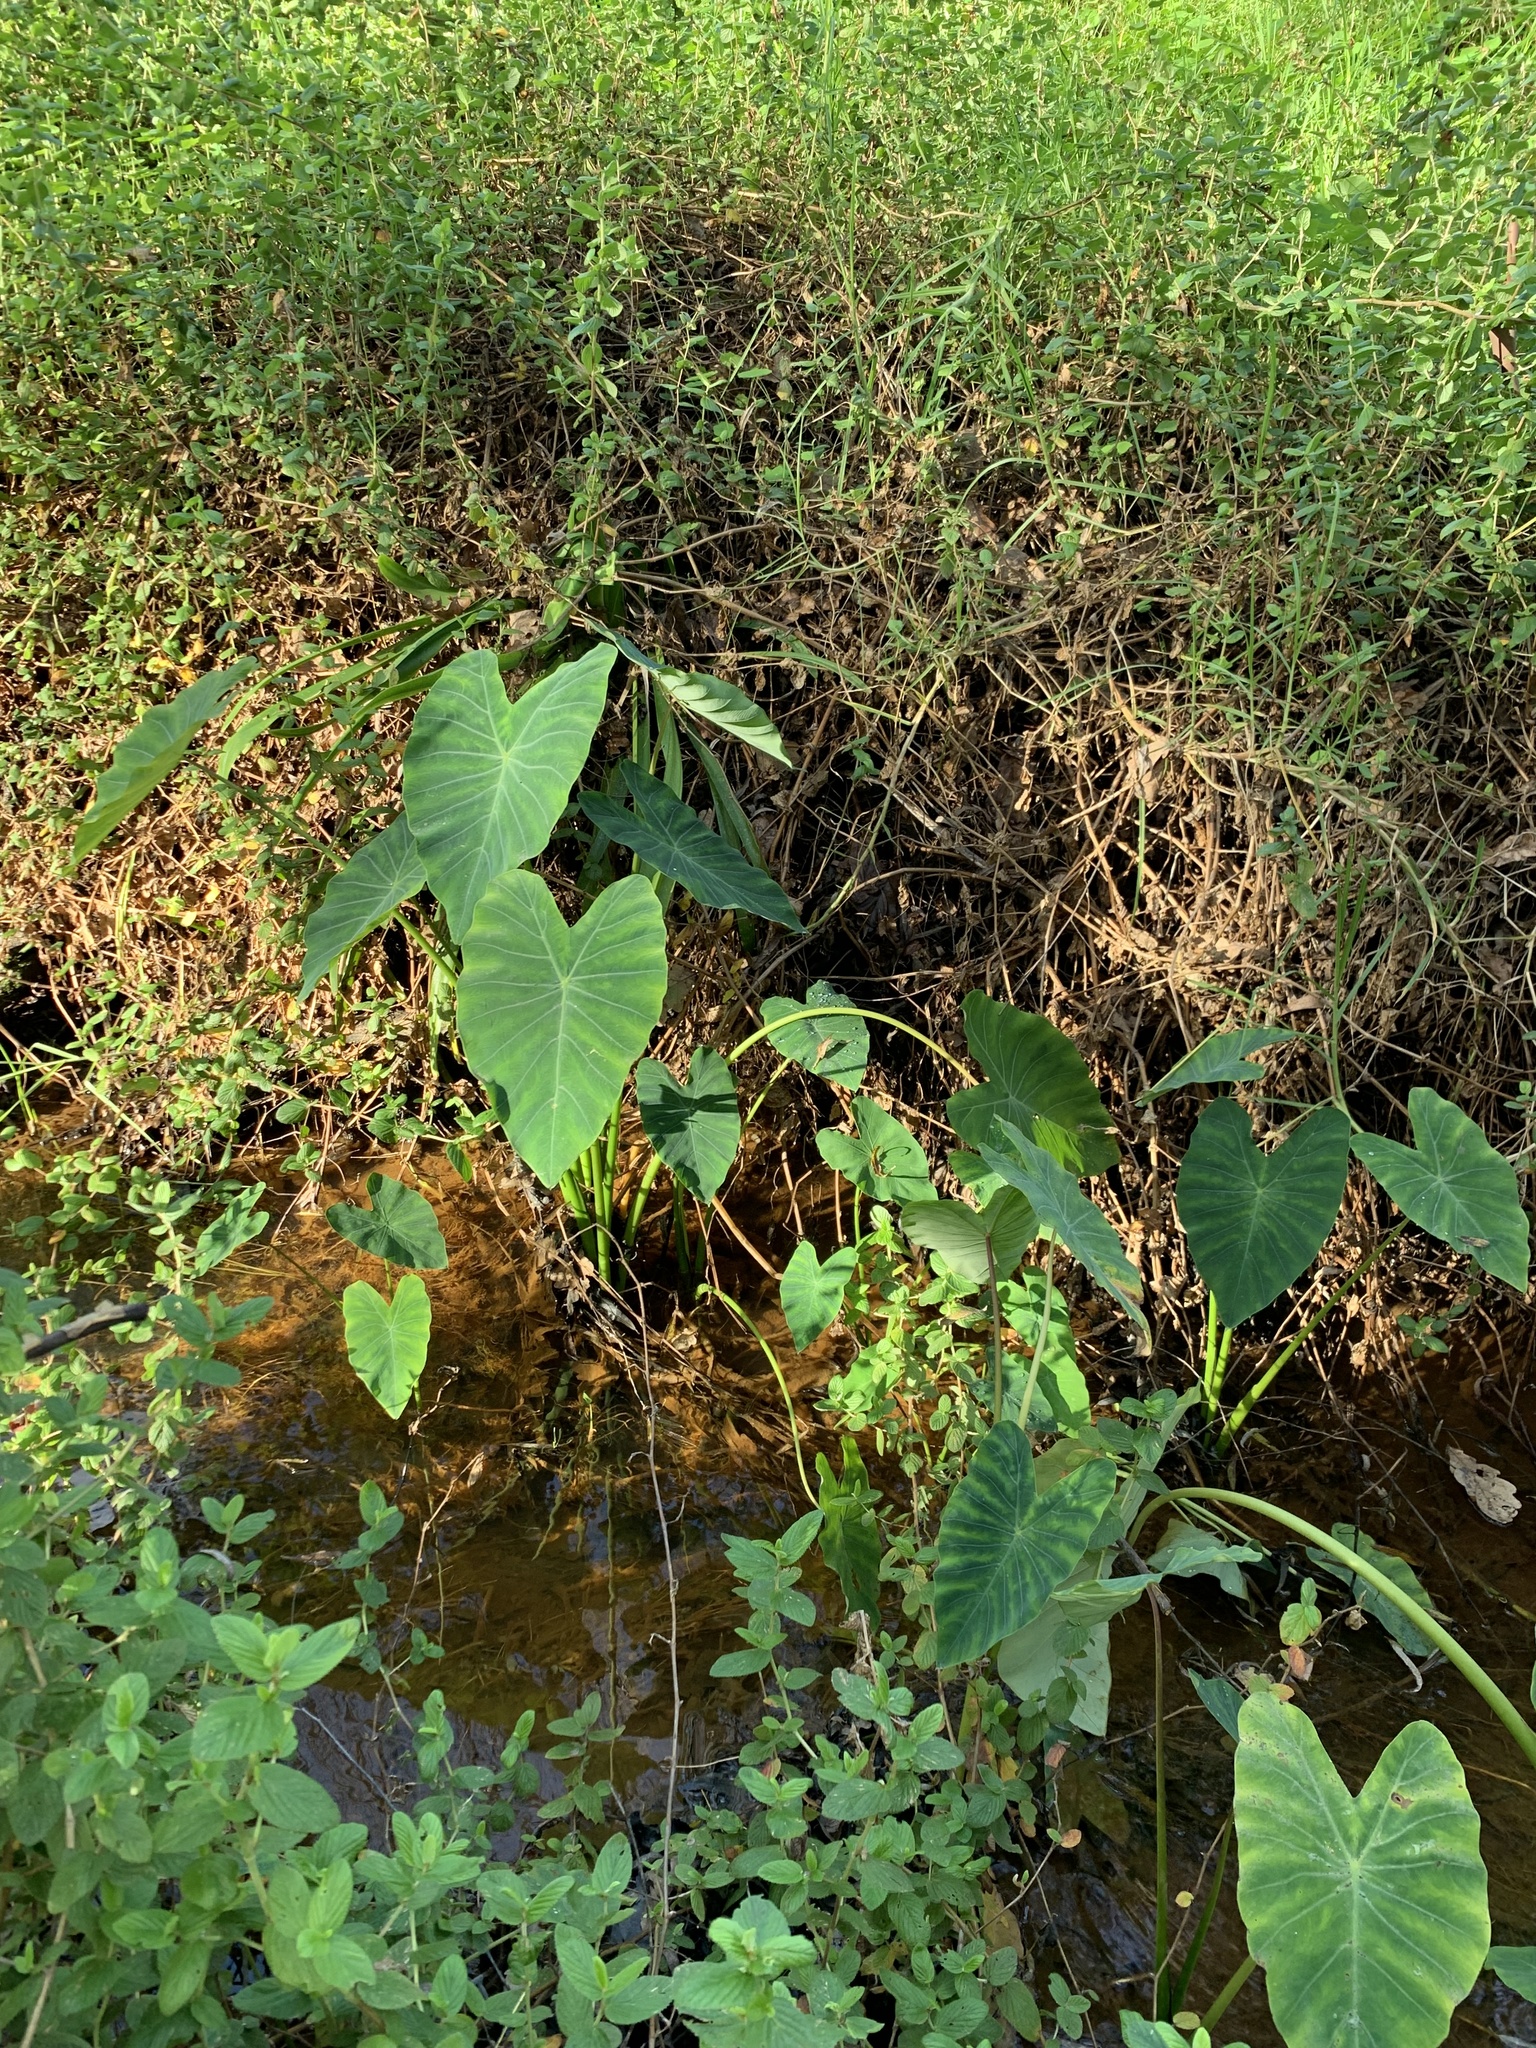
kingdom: Plantae
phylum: Tracheophyta
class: Liliopsida
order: Alismatales
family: Araceae
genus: Colocasia
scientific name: Colocasia esculenta
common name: Taro
